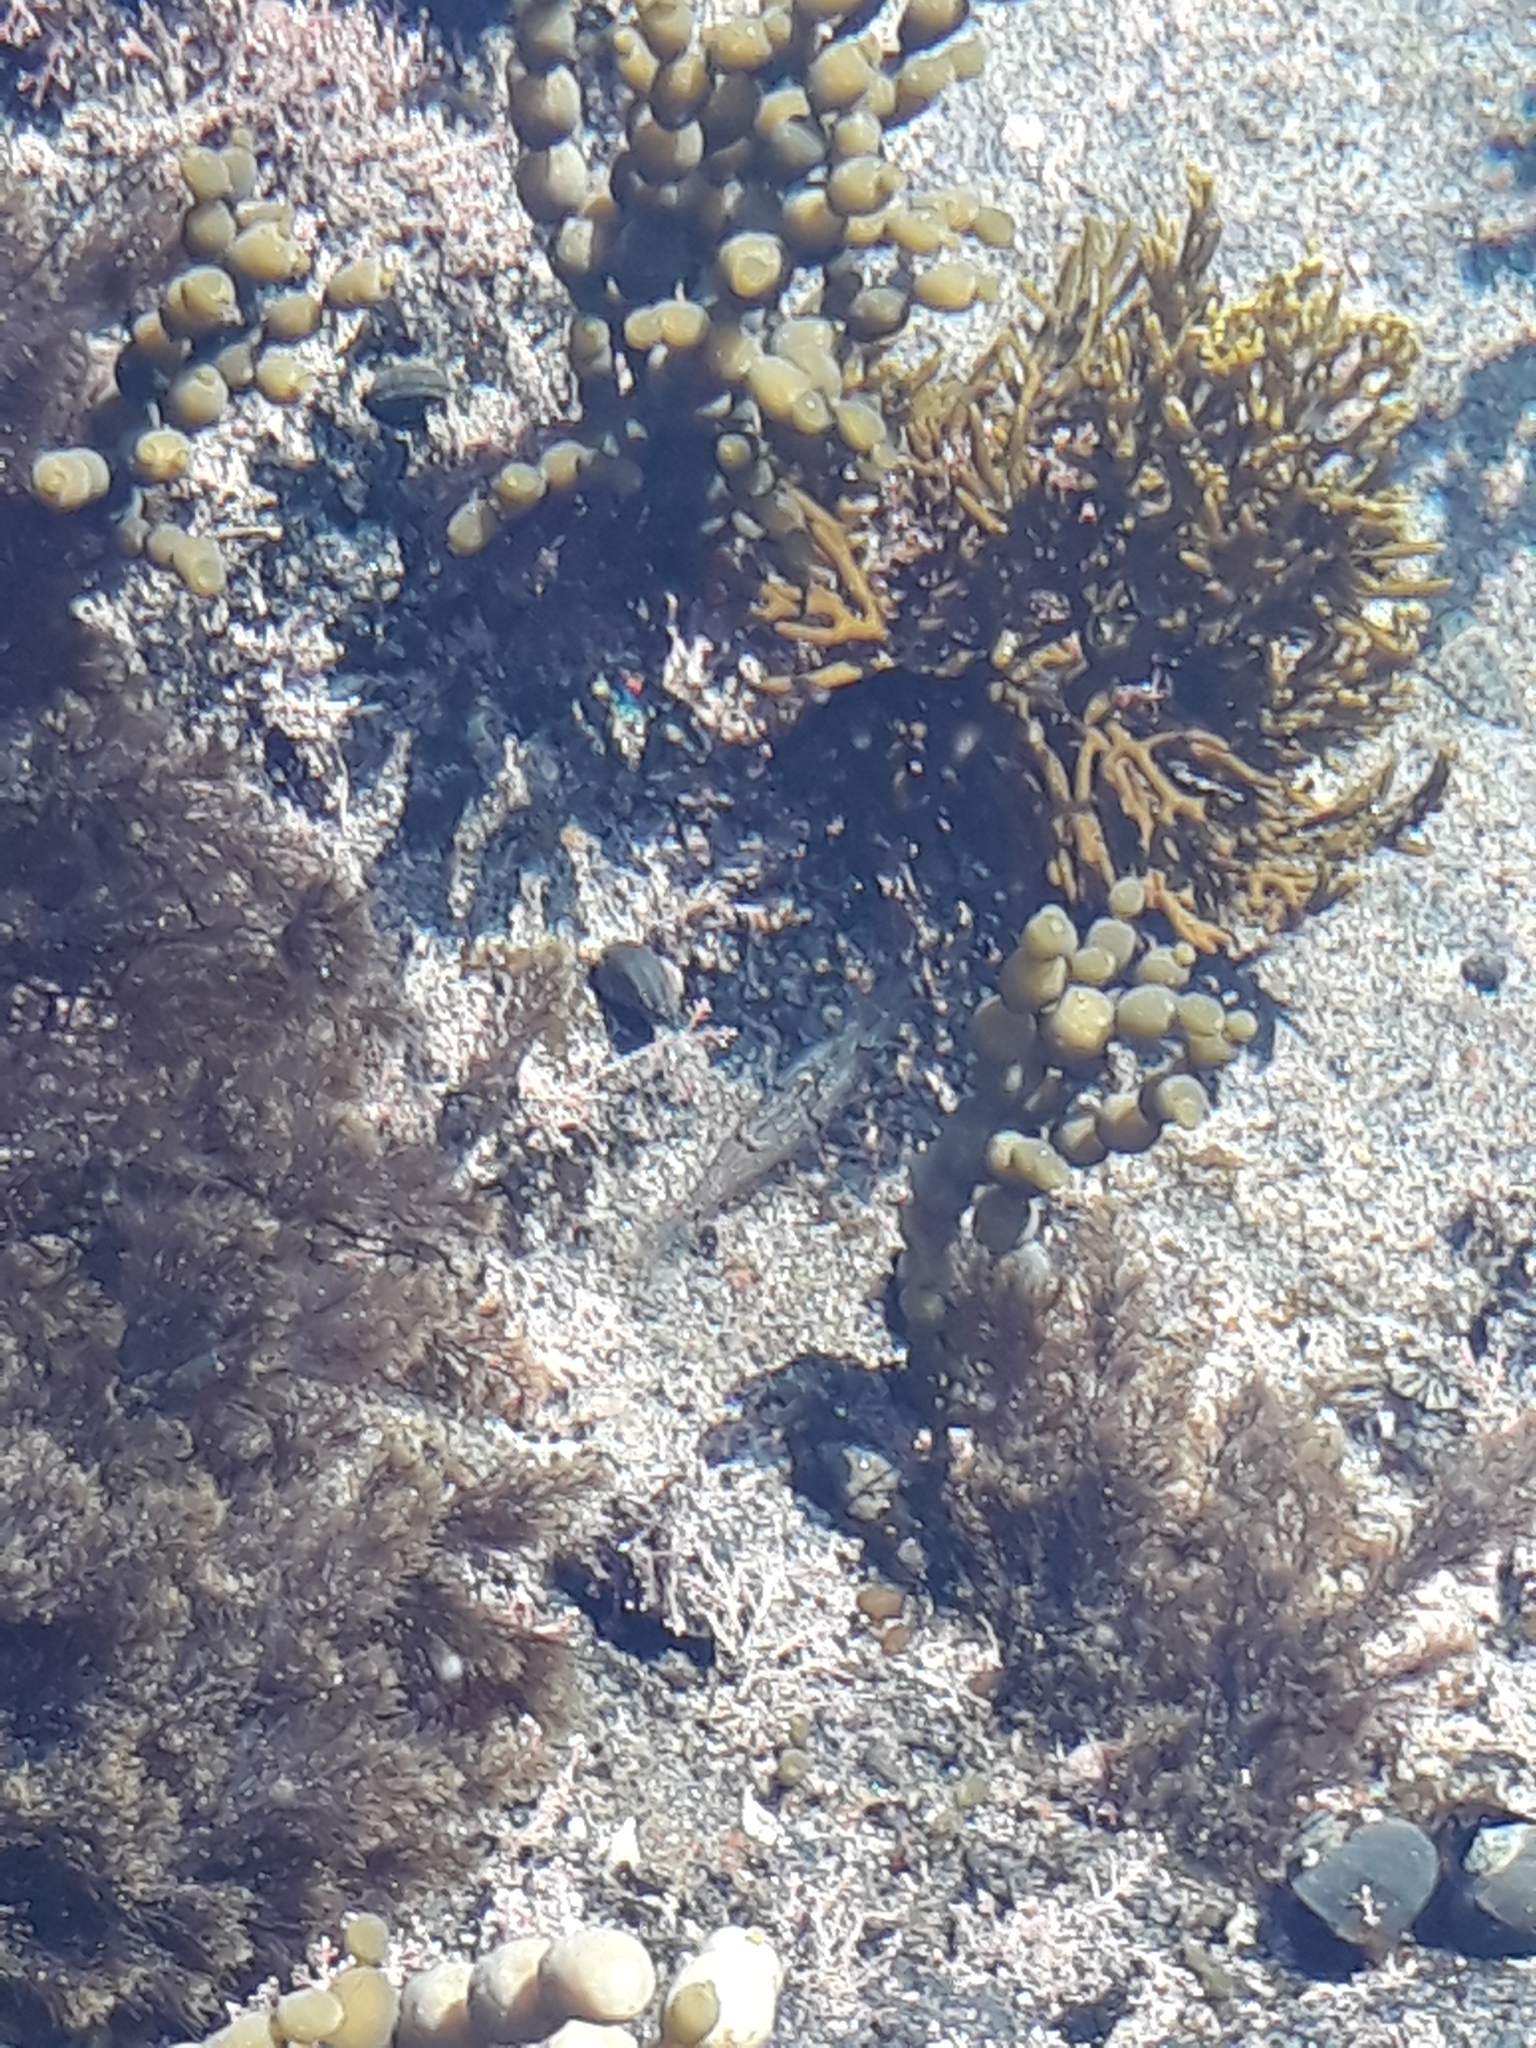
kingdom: Animalia
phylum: Arthropoda
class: Malacostraca
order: Decapoda
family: Palaemonidae
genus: Palaemon
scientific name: Palaemon affinis
